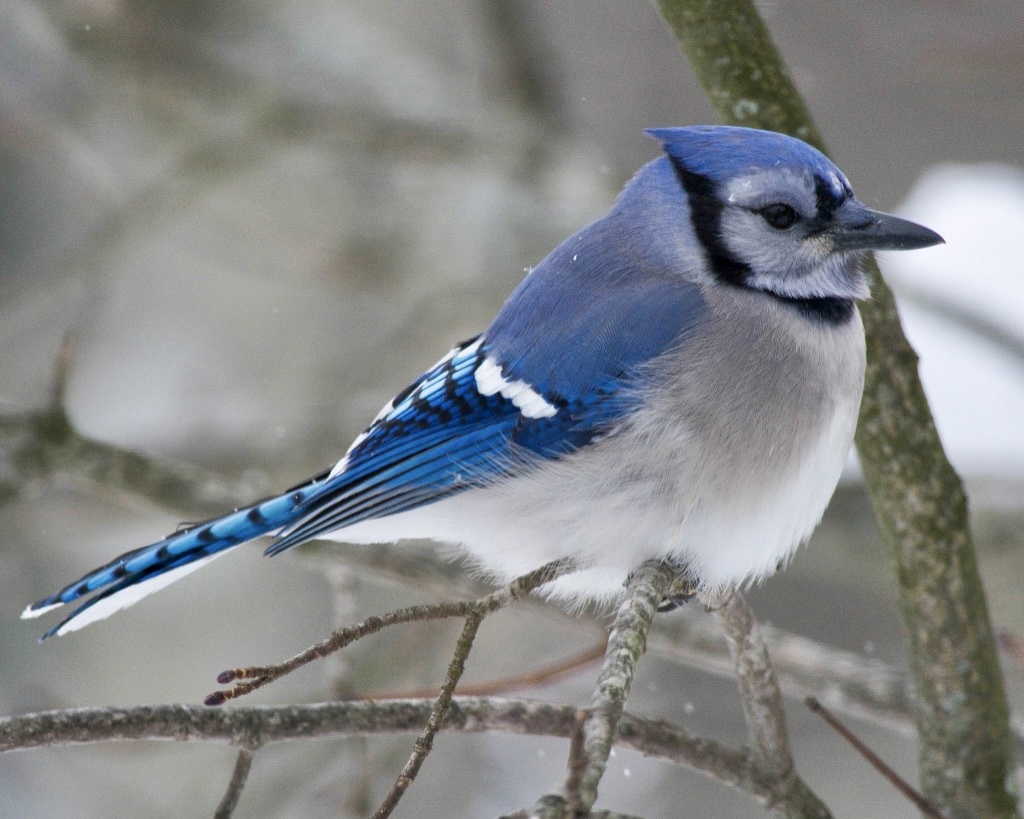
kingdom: Animalia
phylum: Chordata
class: Aves
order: Passeriformes
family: Corvidae
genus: Cyanocitta
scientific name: Cyanocitta cristata
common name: Blue jay
